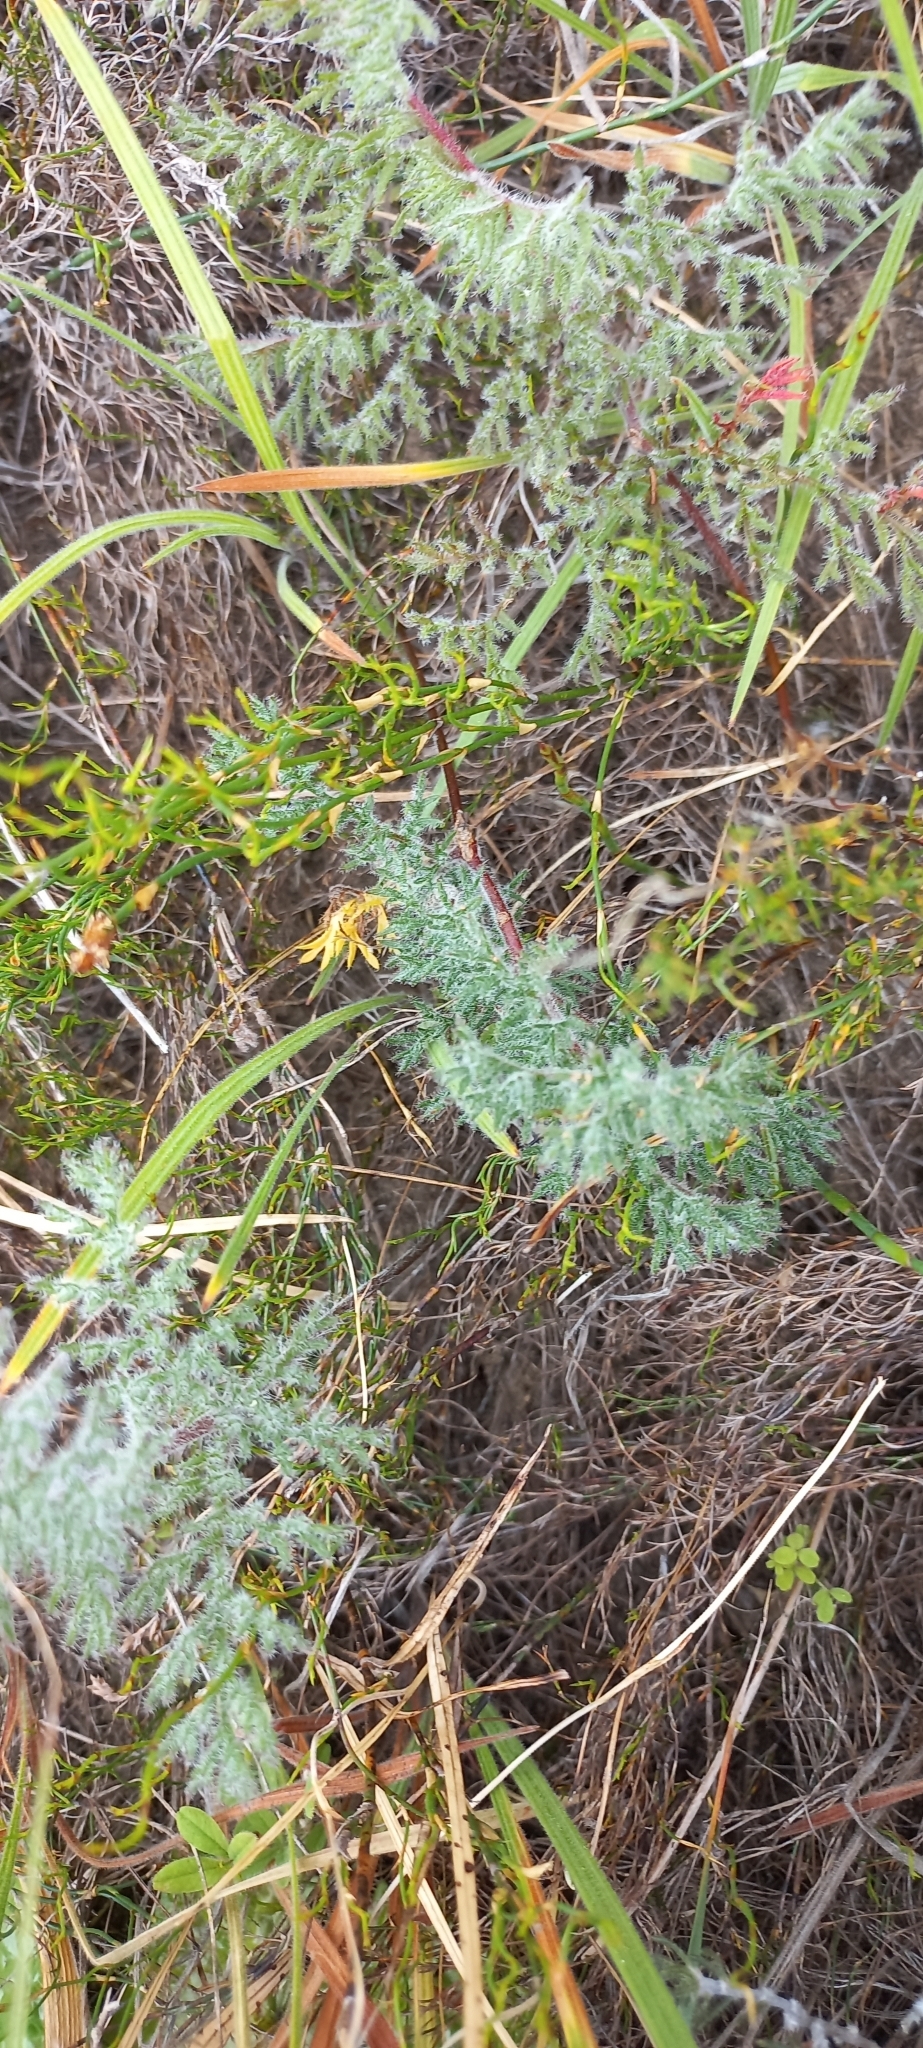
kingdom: Plantae
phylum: Tracheophyta
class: Magnoliopsida
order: Geraniales
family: Geraniaceae
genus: Pelargonium
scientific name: Pelargonium triste
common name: Night-scent pelargonium
